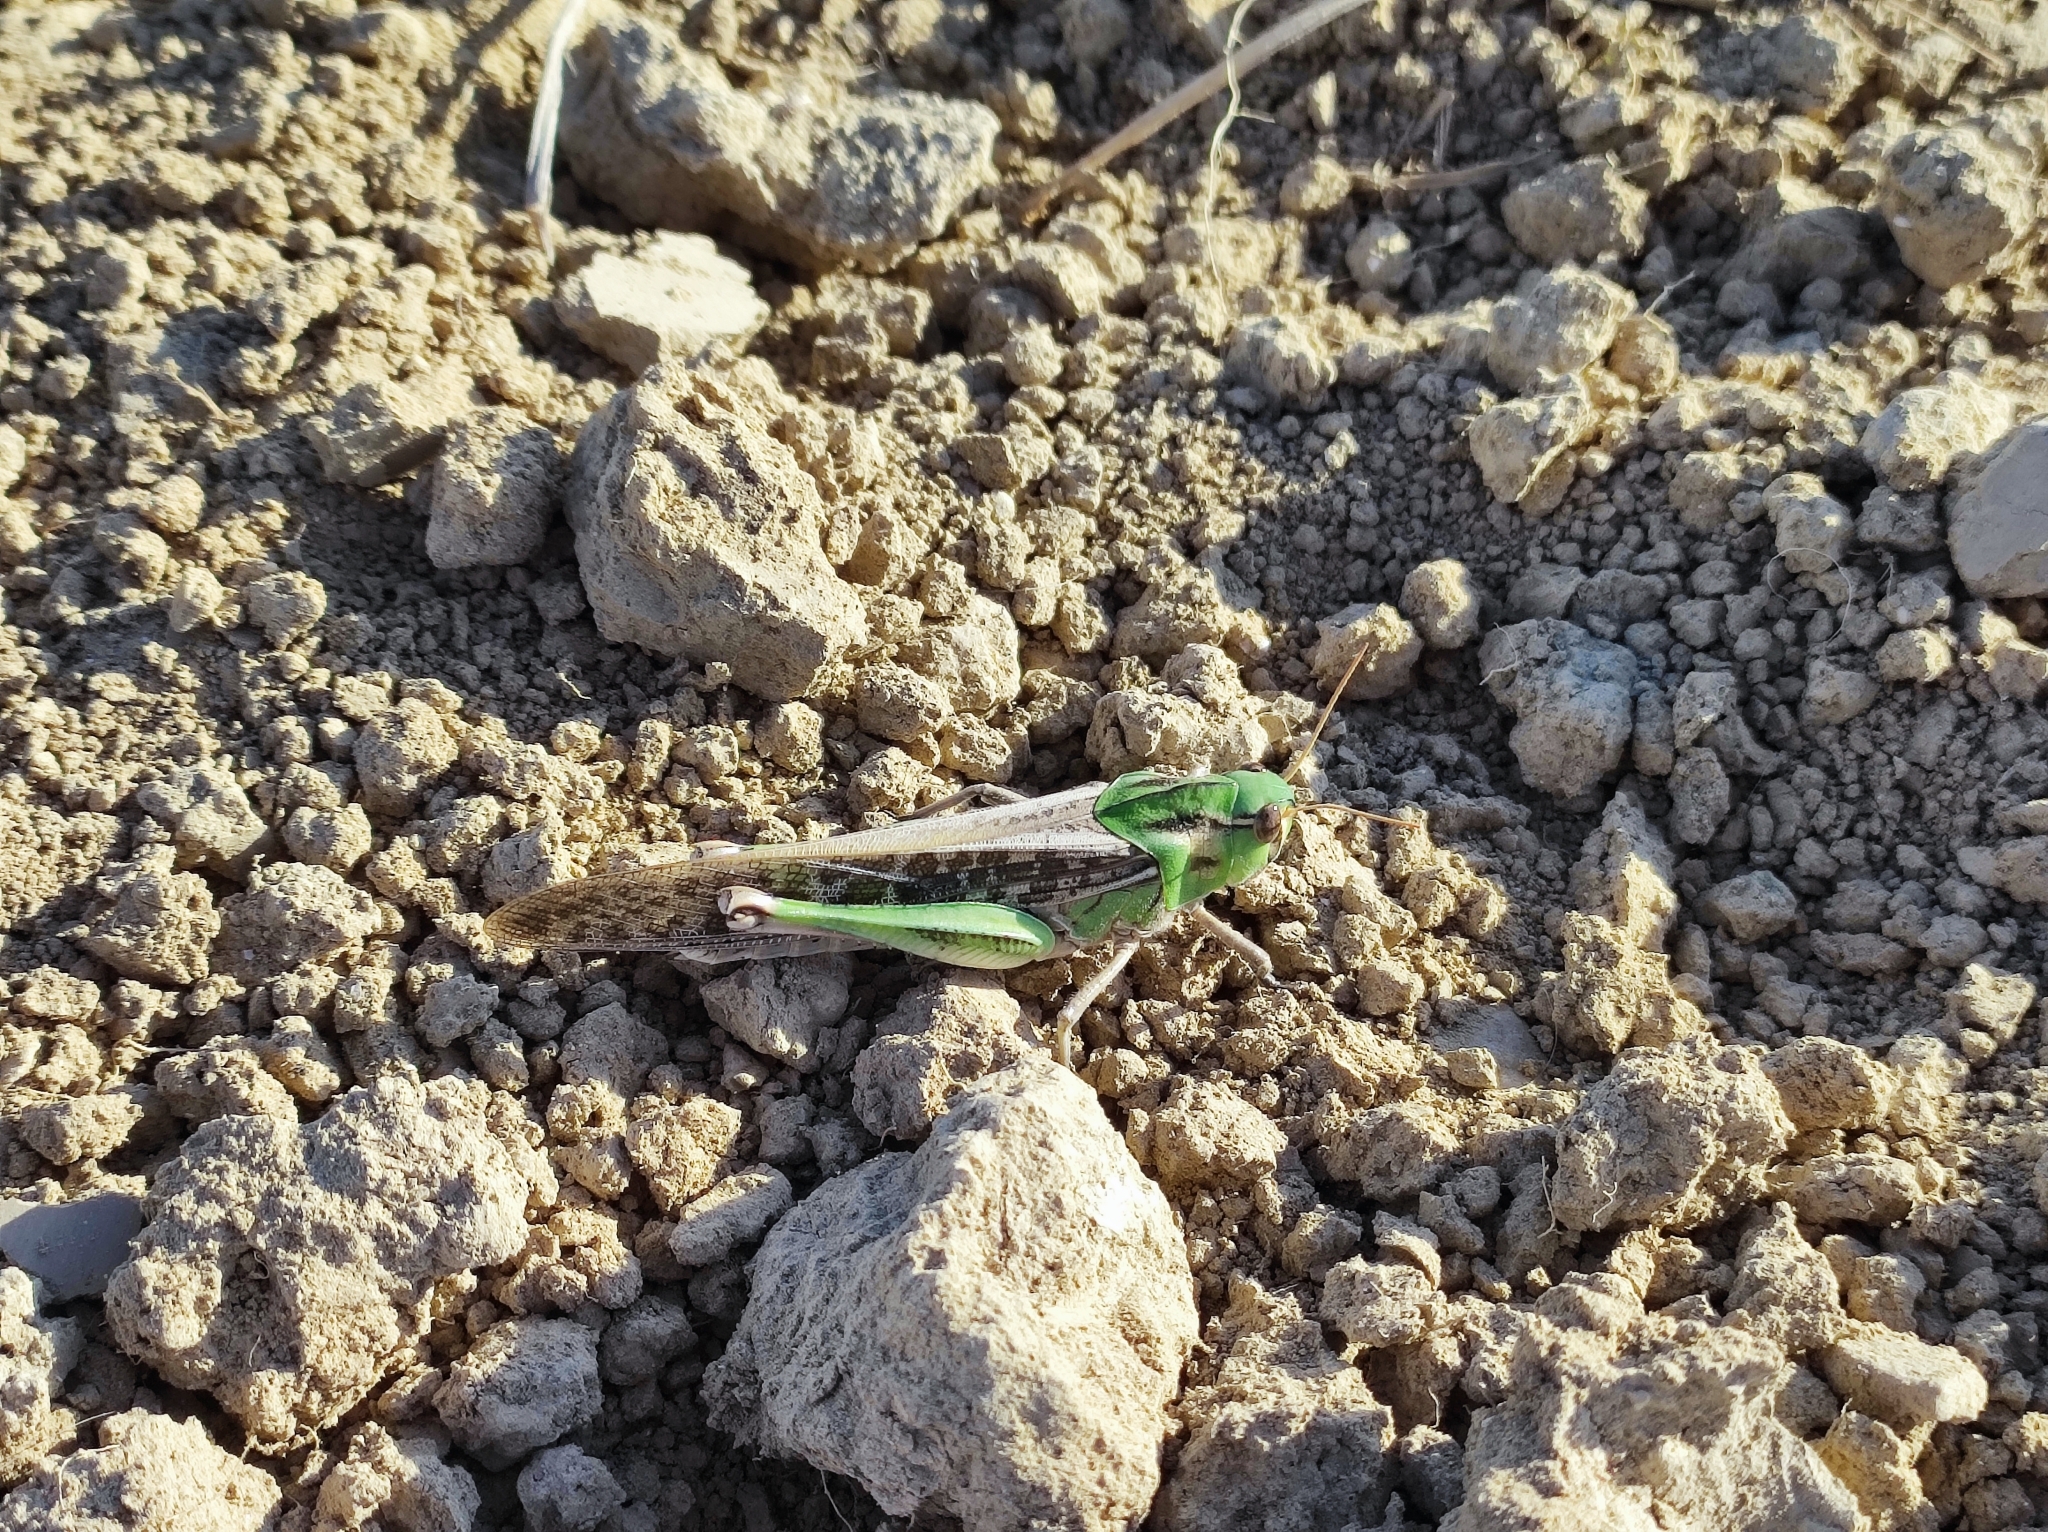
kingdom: Animalia
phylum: Arthropoda
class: Insecta
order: Orthoptera
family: Acrididae
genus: Locusta
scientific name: Locusta migratoria
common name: Migratory locust
